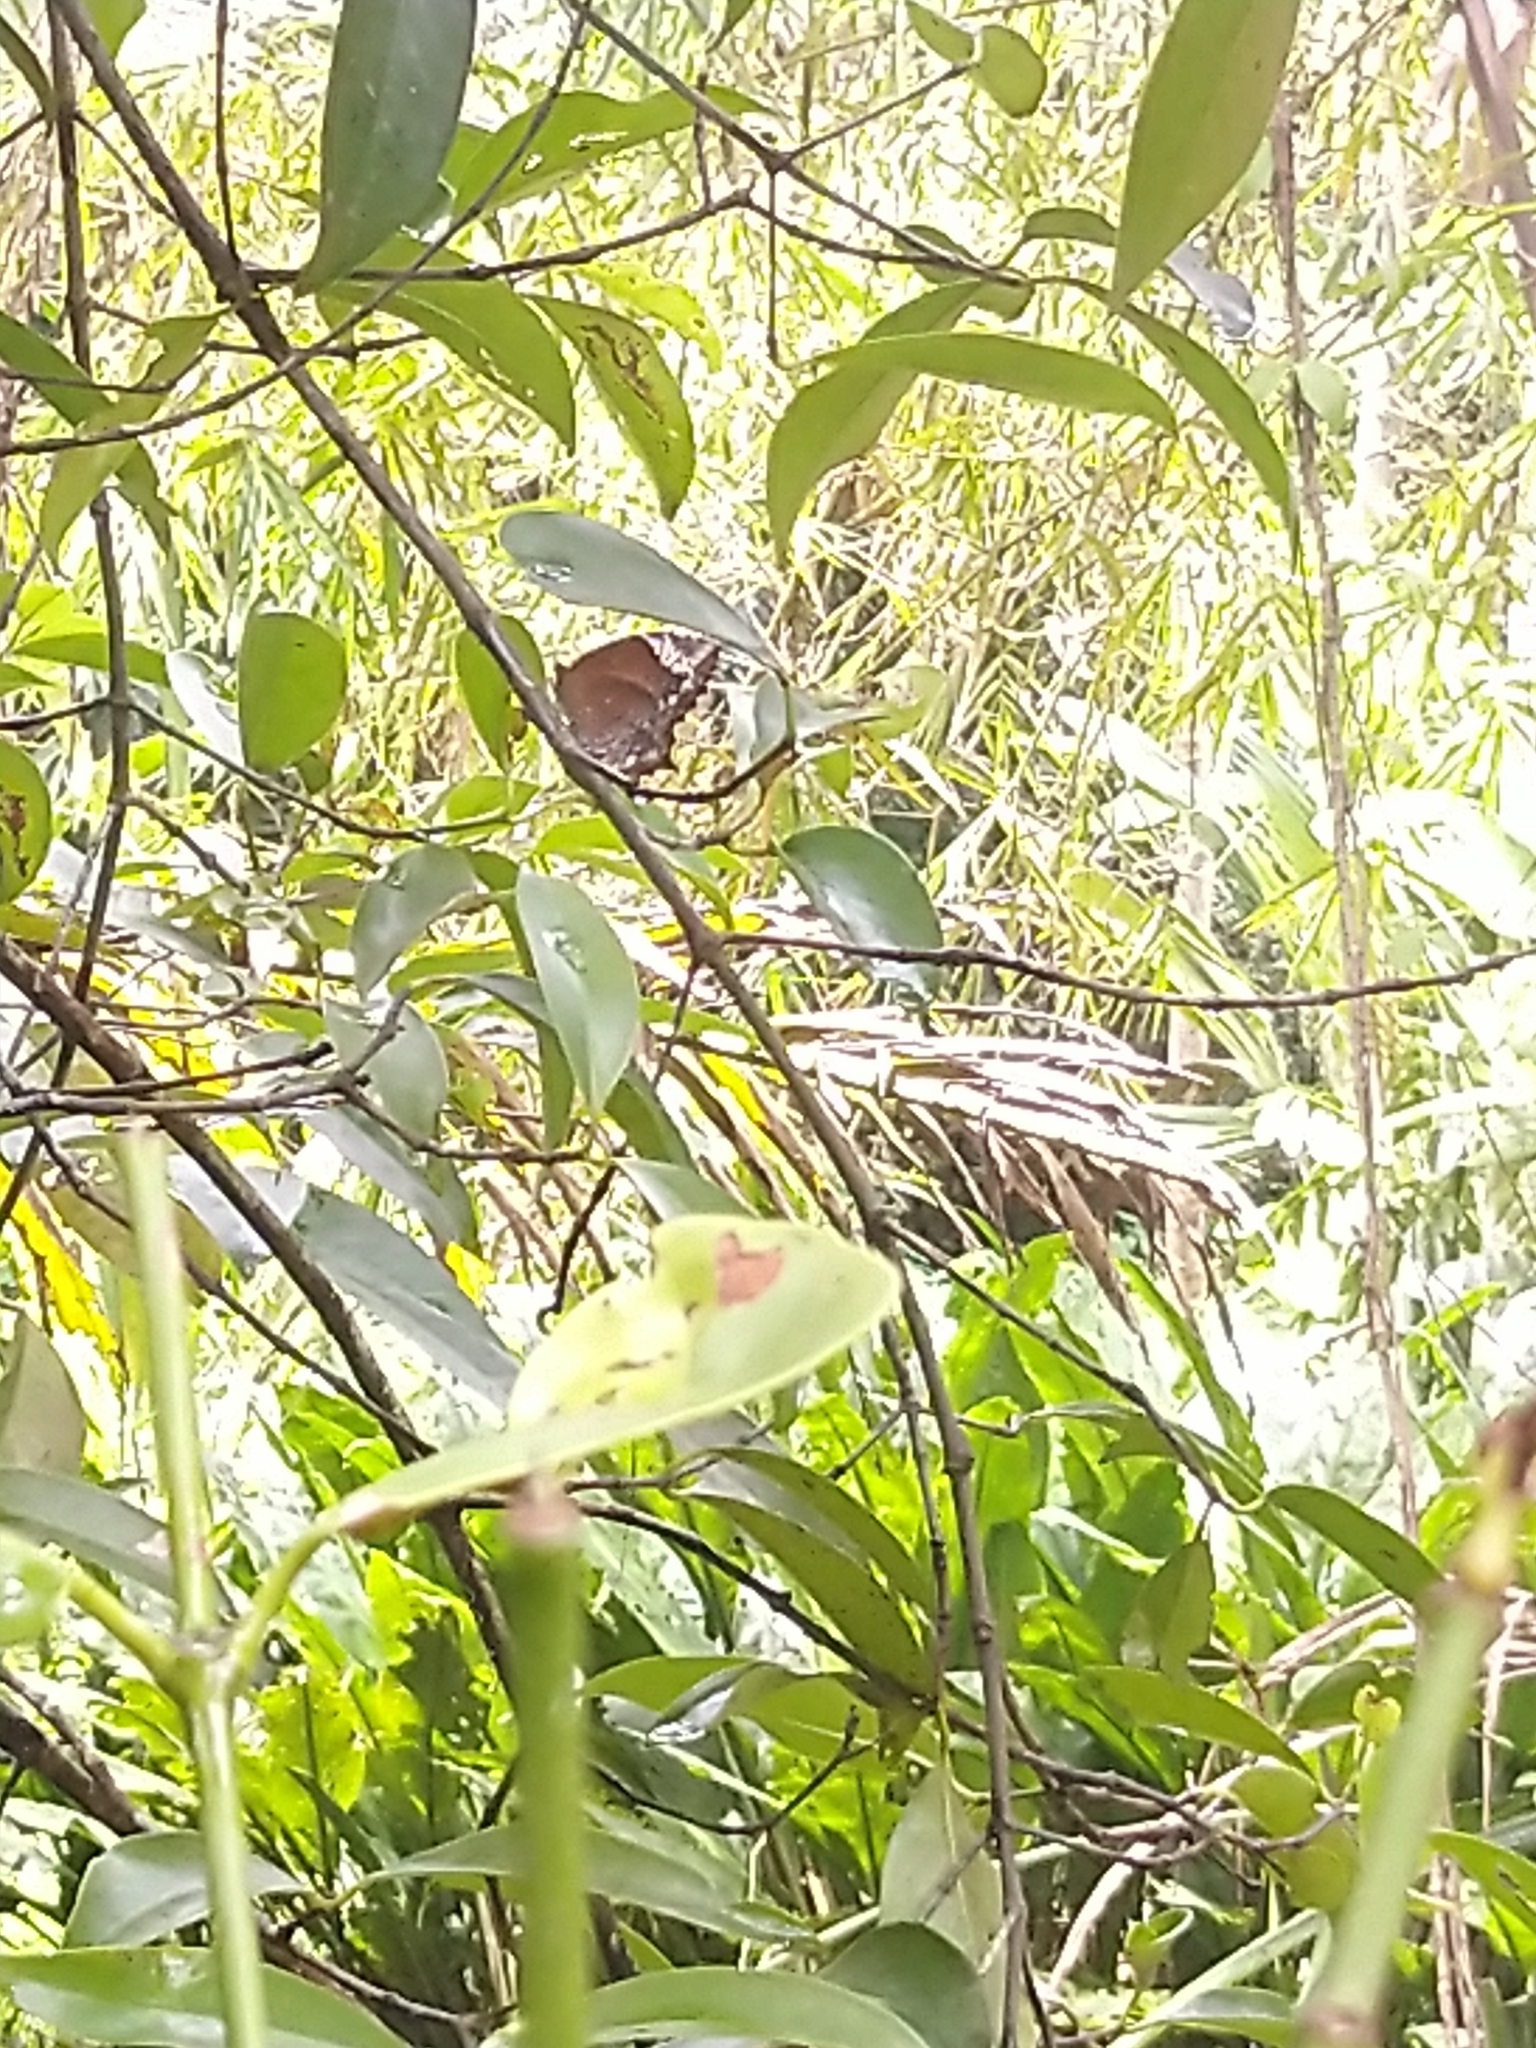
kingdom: Animalia
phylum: Arthropoda
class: Insecta
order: Lepidoptera
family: Nymphalidae
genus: Elymnias
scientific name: Elymnias caudata
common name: Tailed palmfly
